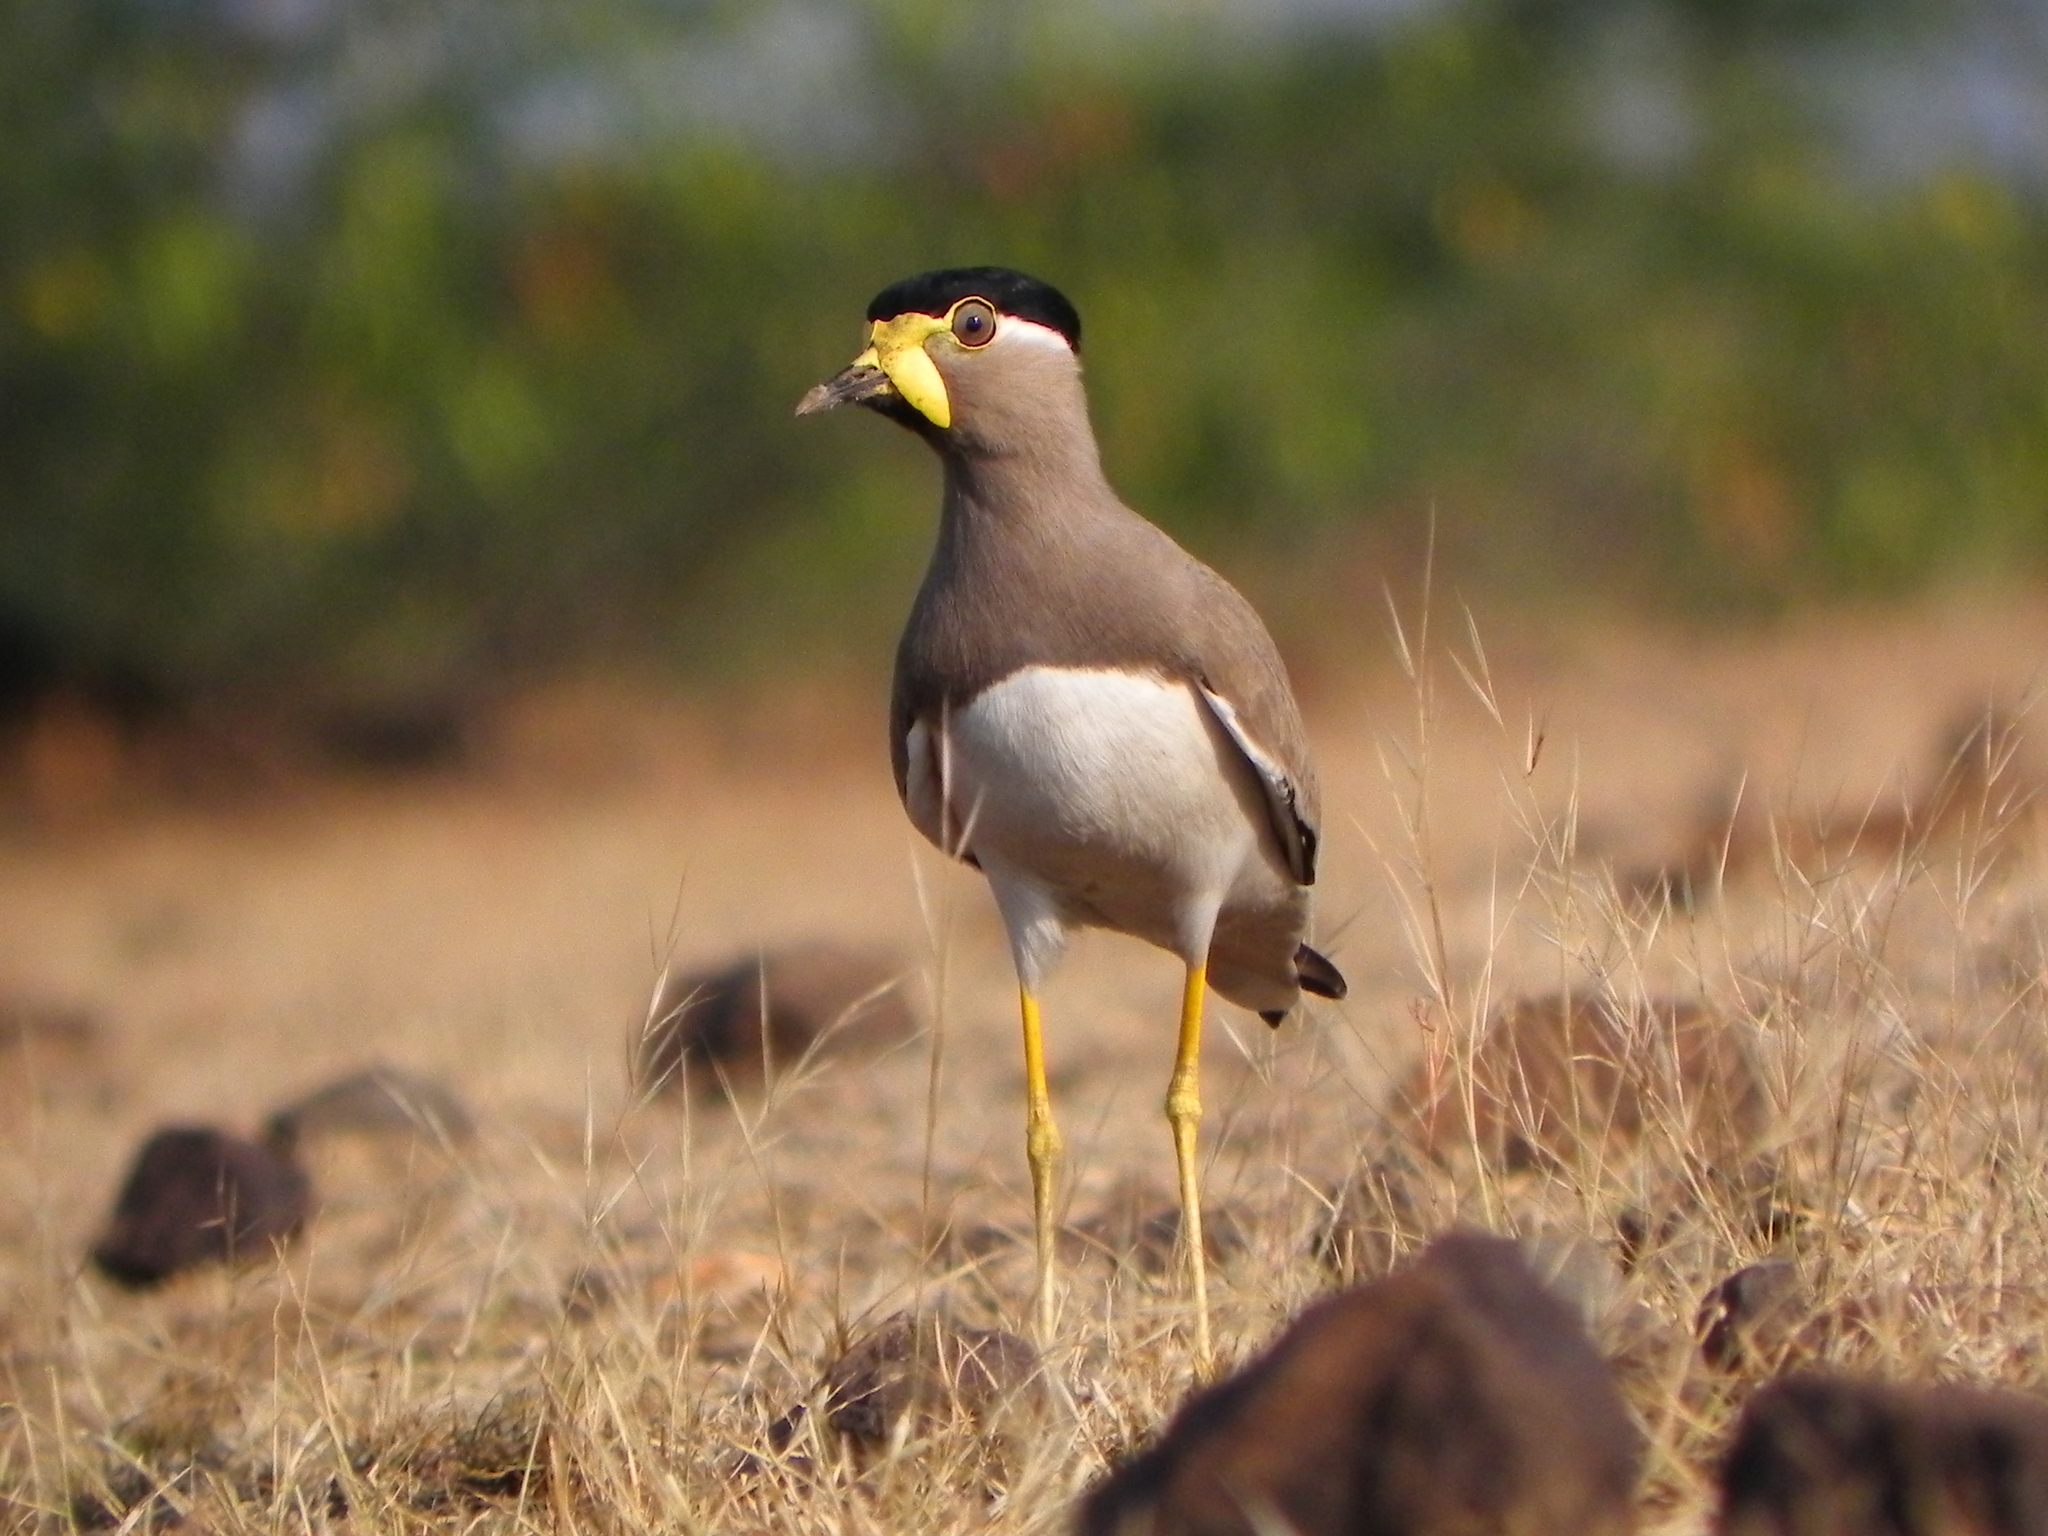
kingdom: Animalia
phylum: Chordata
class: Aves
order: Charadriiformes
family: Charadriidae
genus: Vanellus
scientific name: Vanellus malabaricus
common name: Yellow-wattled lapwing
